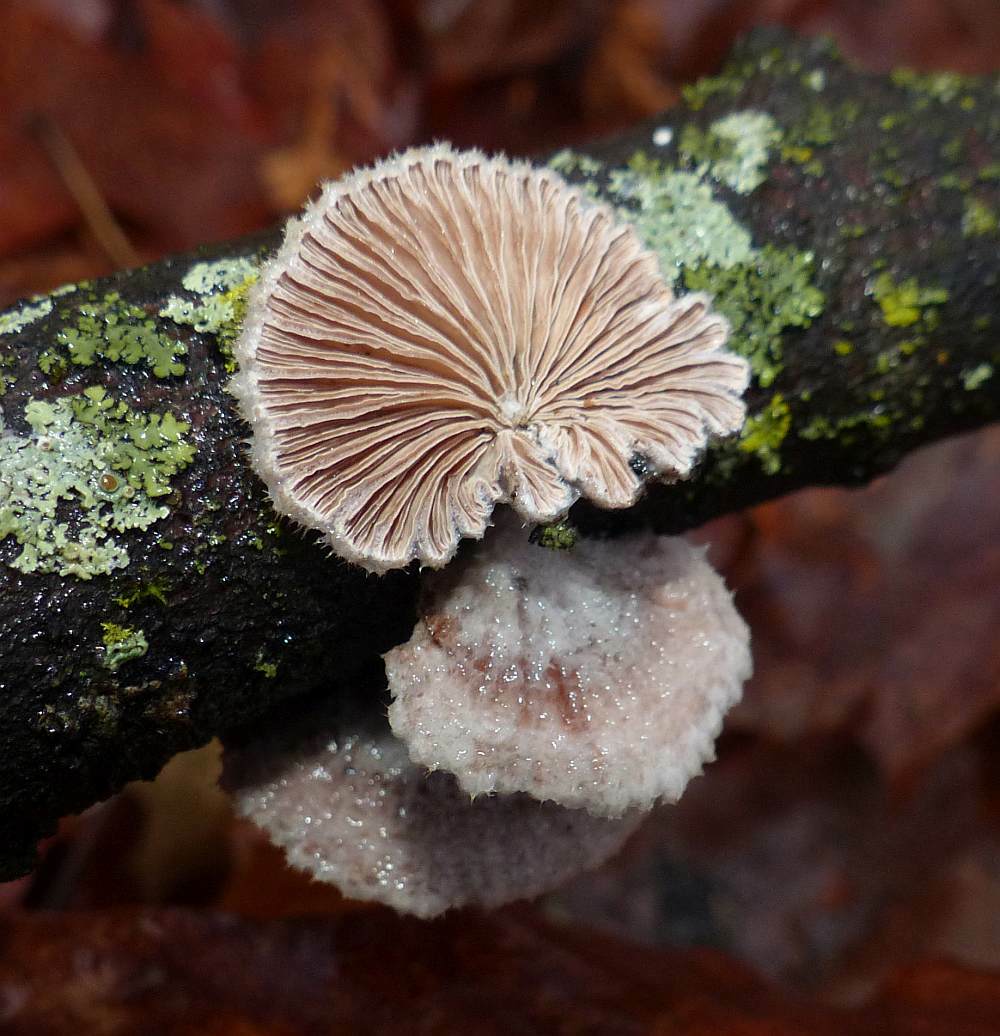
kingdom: Fungi
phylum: Basidiomycota
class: Agaricomycetes
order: Agaricales
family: Schizophyllaceae
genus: Schizophyllum
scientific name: Schizophyllum commune
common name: Common porecrust
